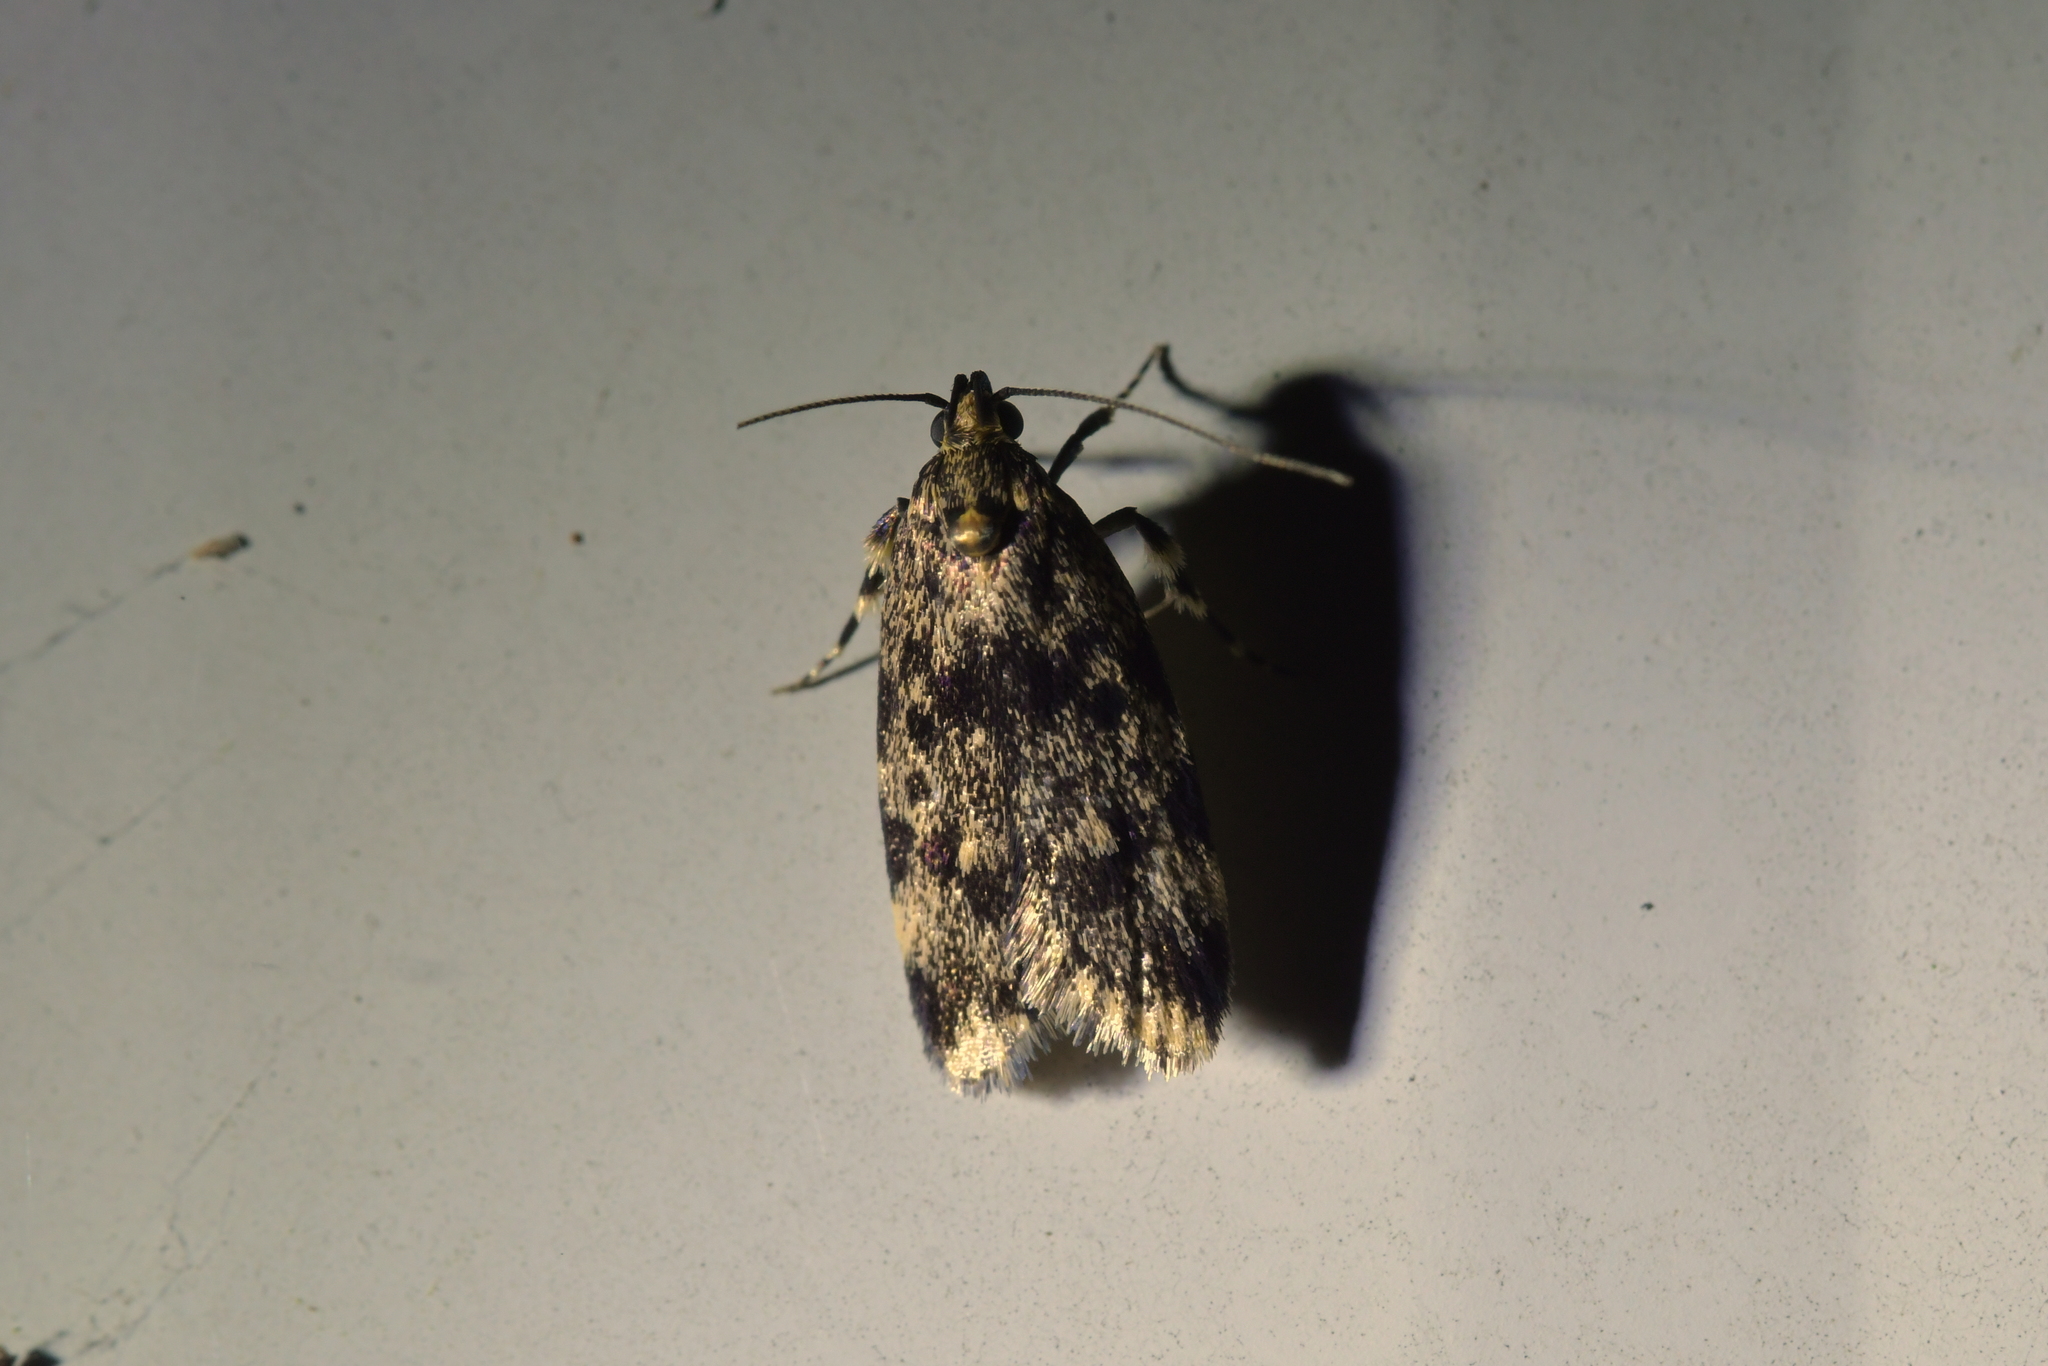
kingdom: Animalia
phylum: Arthropoda
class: Insecta
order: Lepidoptera
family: Oecophoridae
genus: Barea
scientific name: Barea codrella
